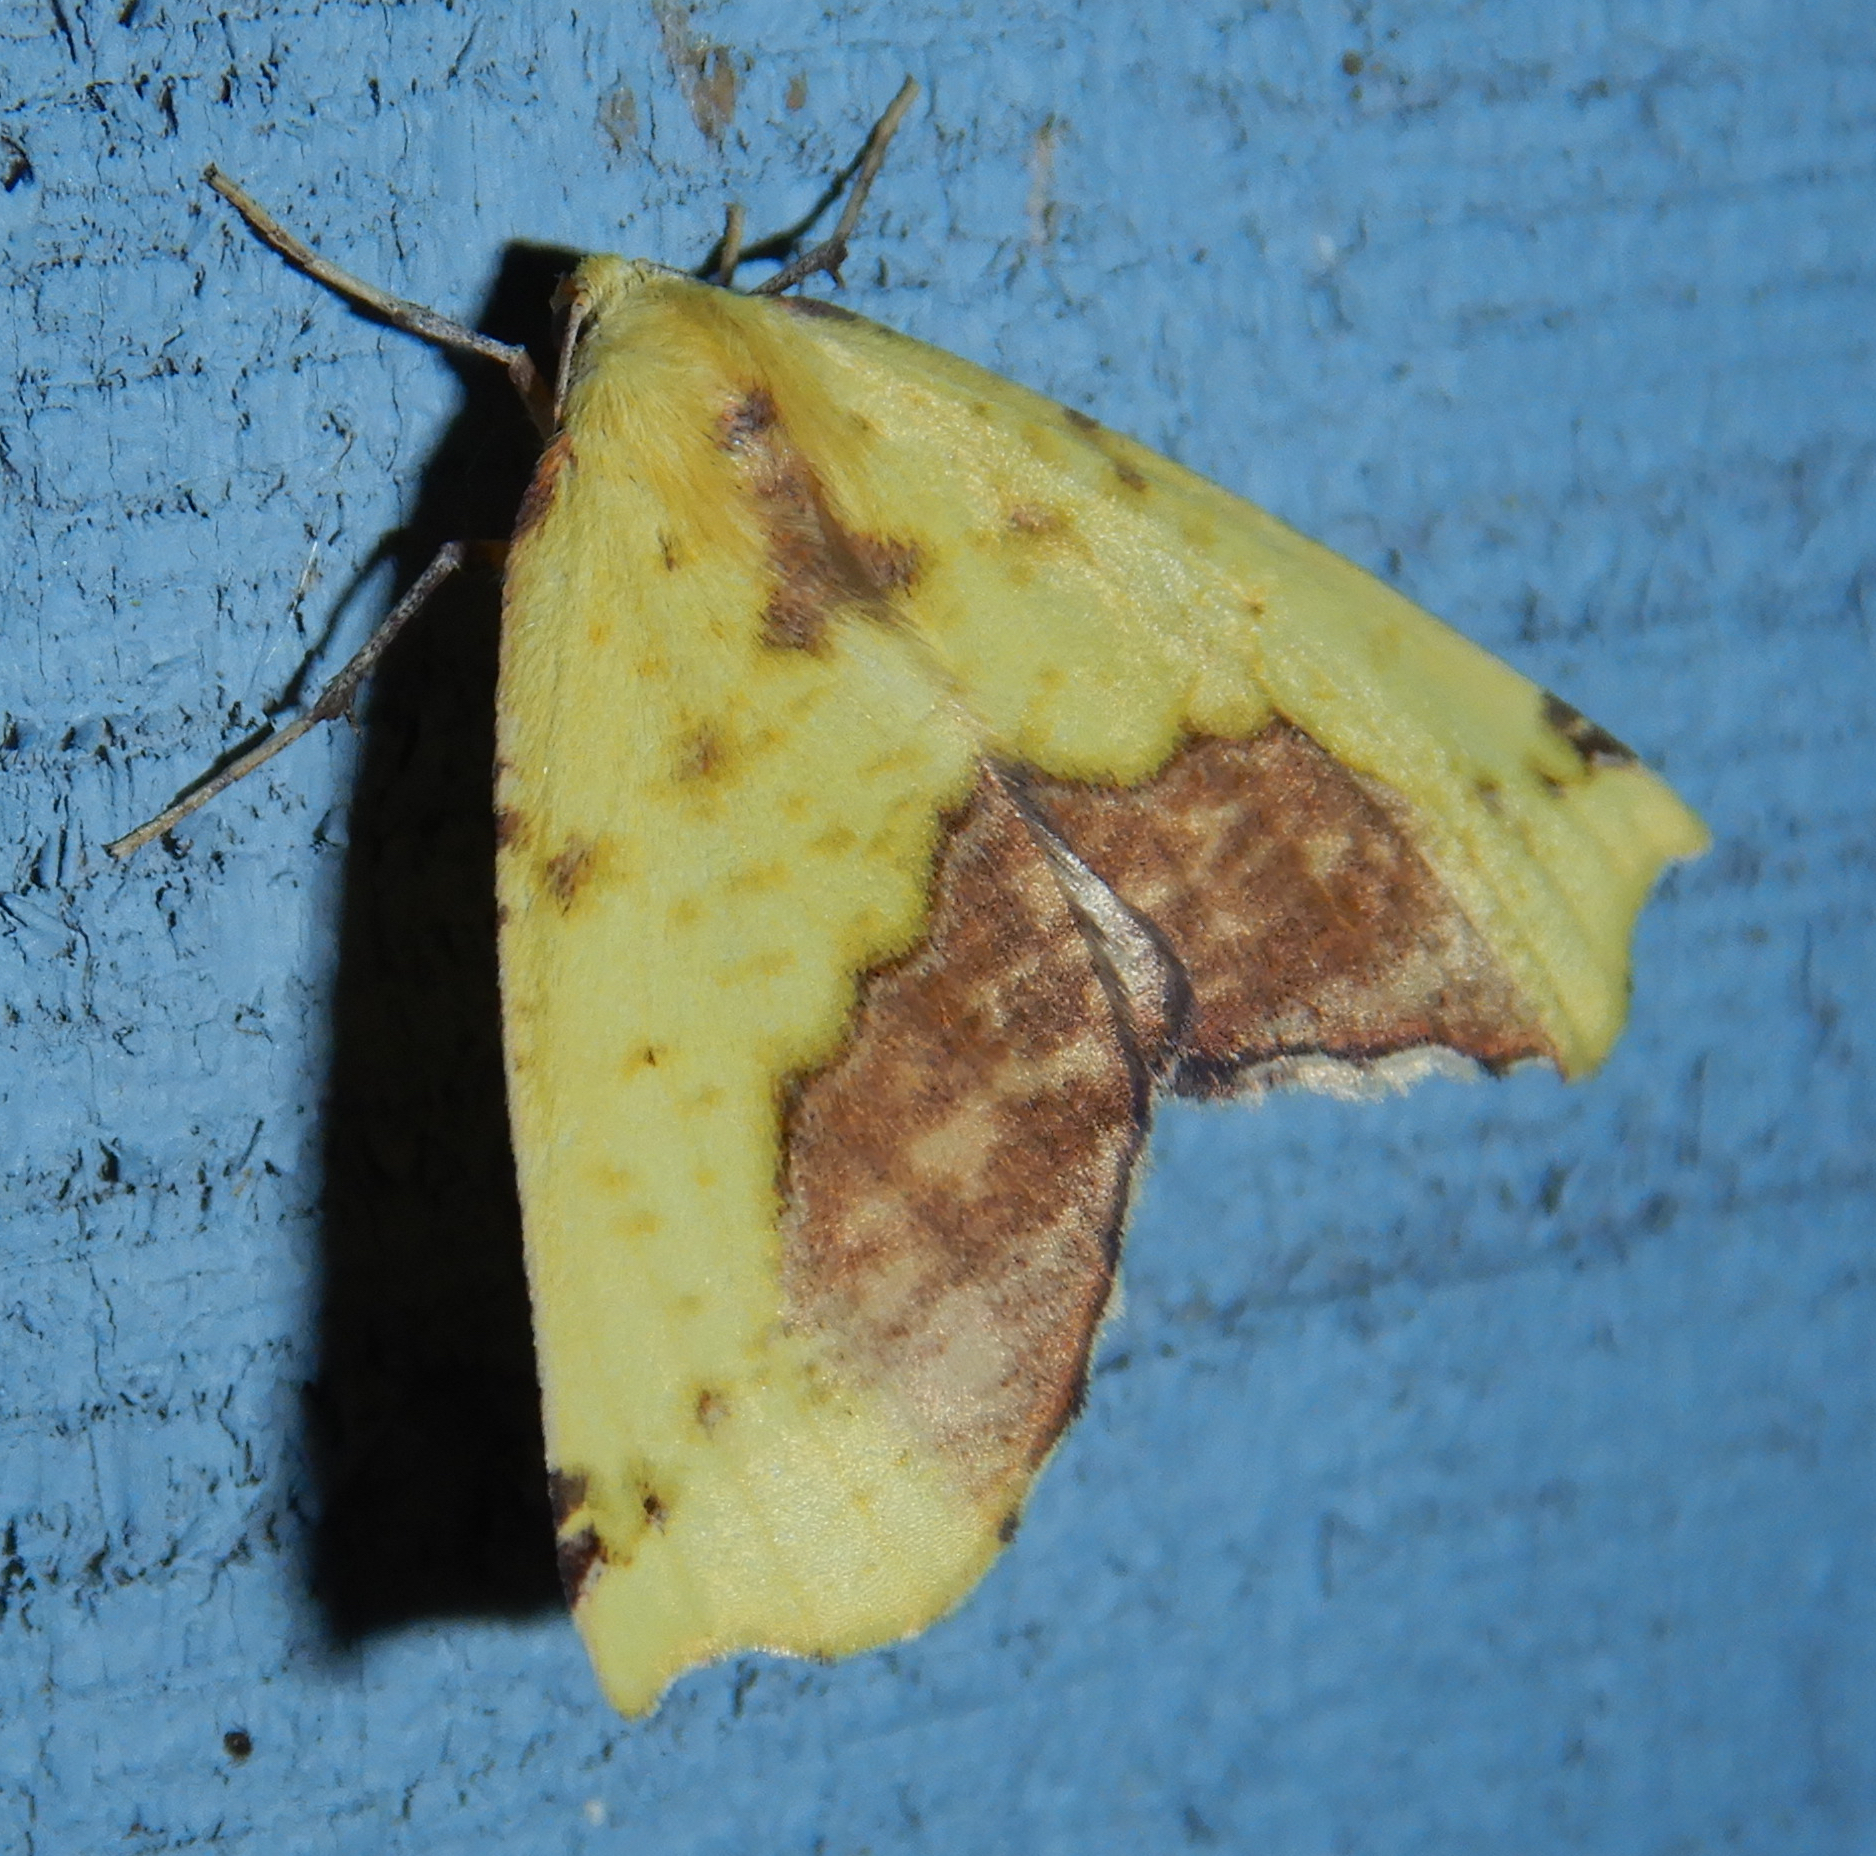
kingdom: Animalia
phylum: Arthropoda
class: Insecta
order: Lepidoptera
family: Geometridae
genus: Sicya
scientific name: Sicya macularia
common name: Sharp-lined yellow
